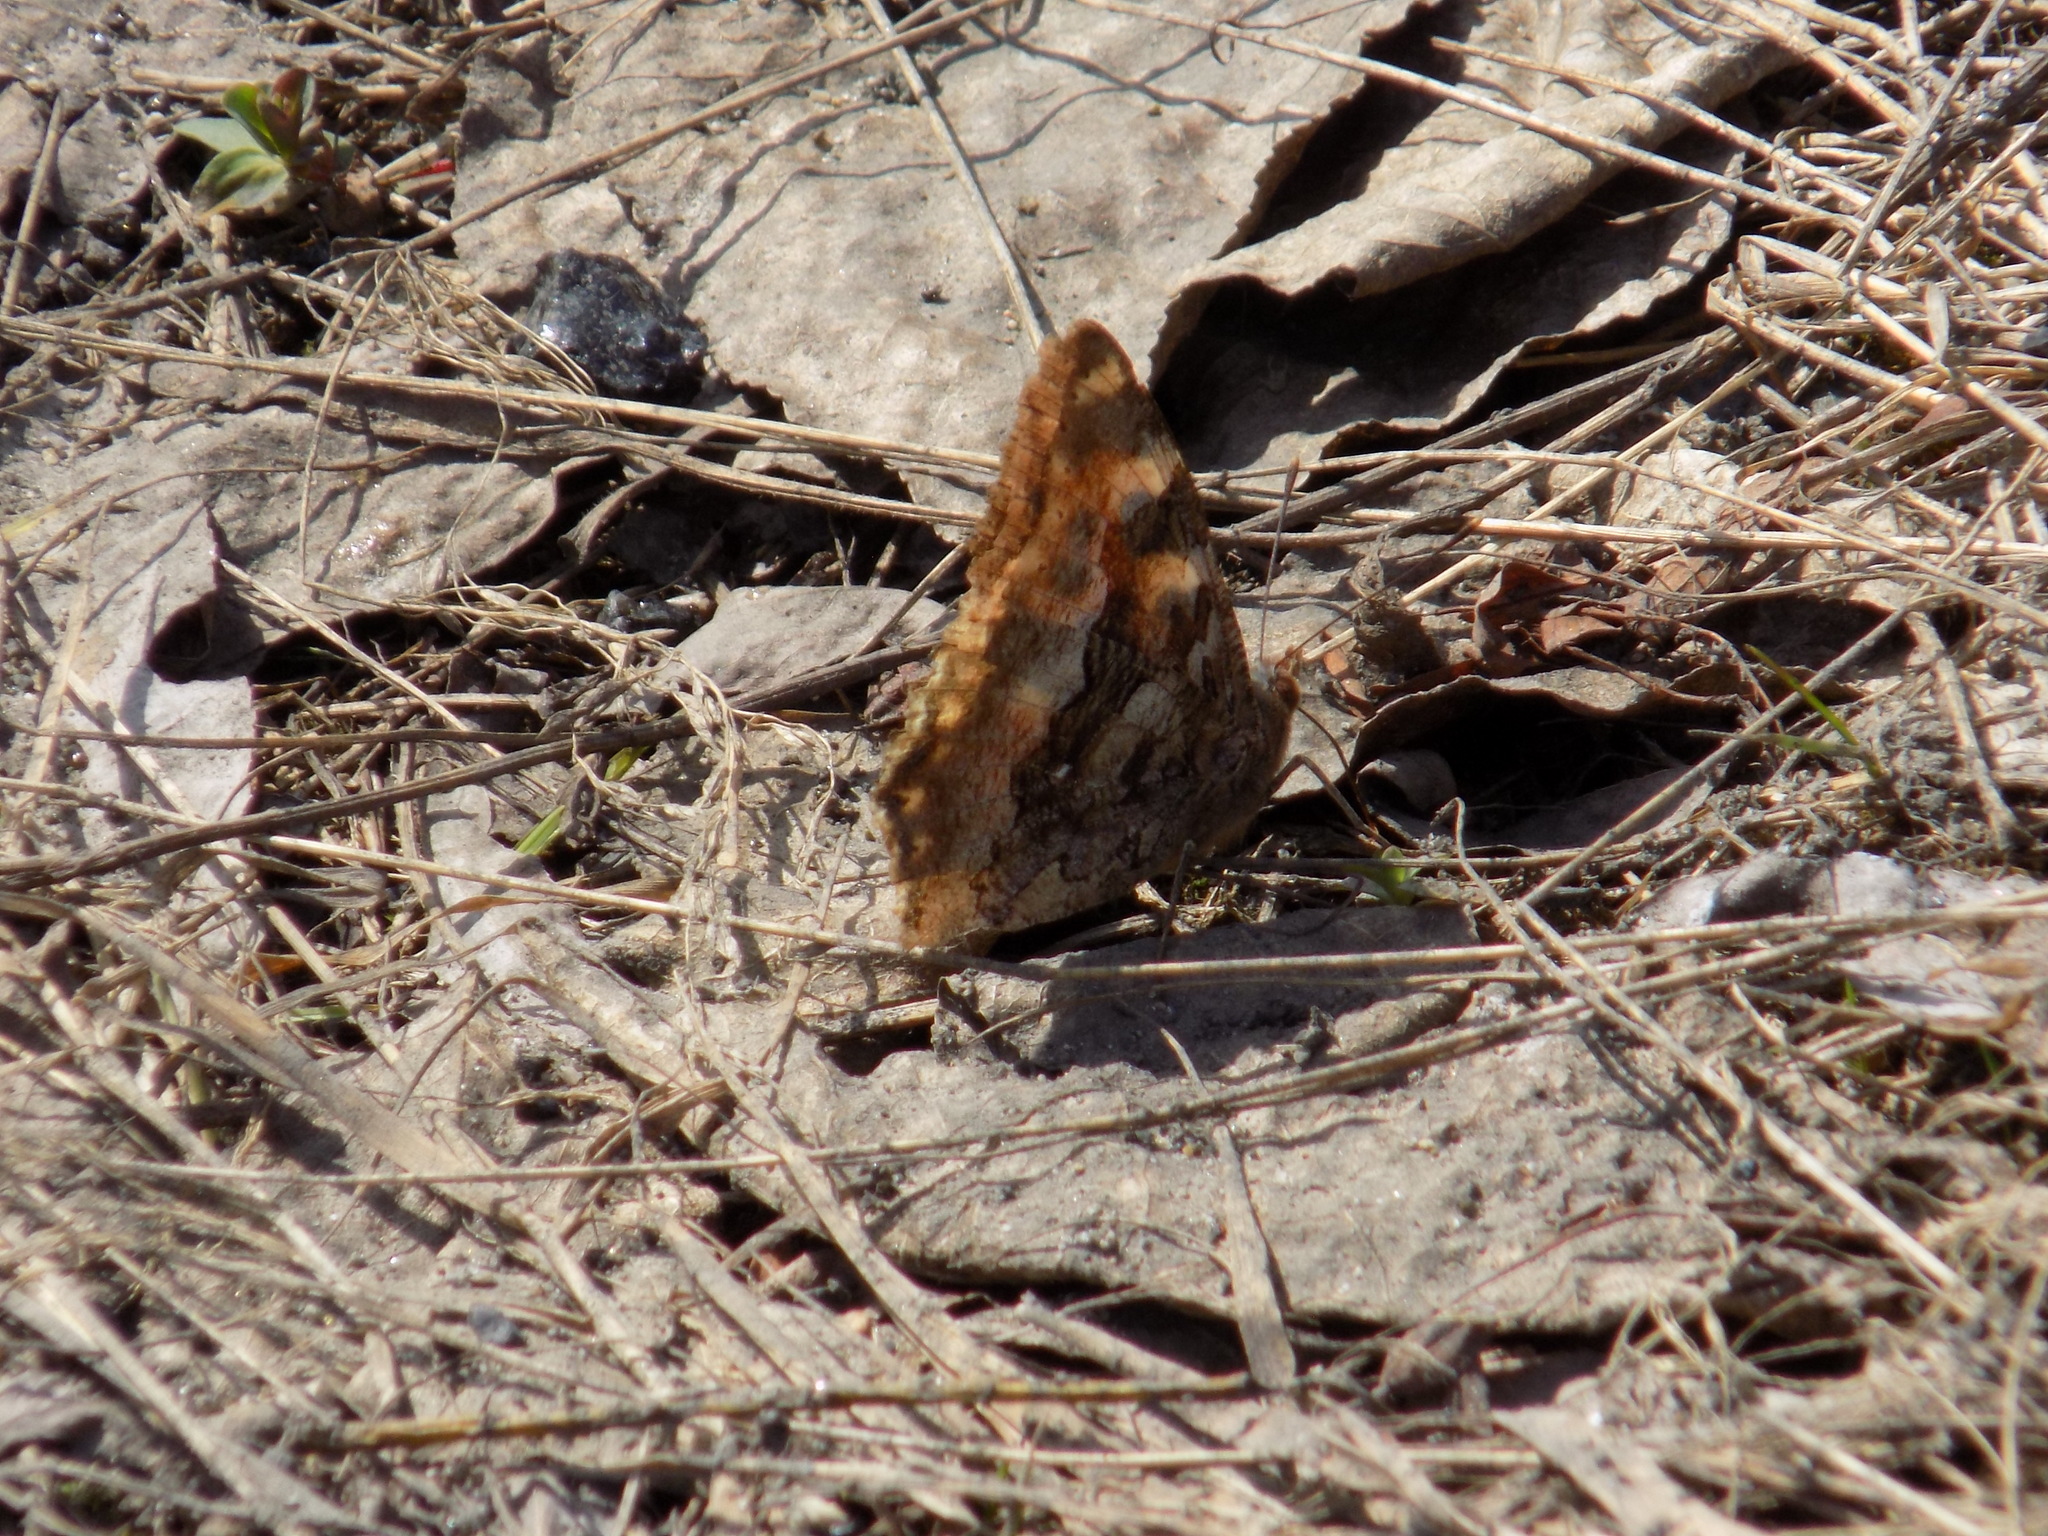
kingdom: Animalia
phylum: Arthropoda
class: Insecta
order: Lepidoptera
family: Nymphalidae
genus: Polygonia
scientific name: Polygonia vaualbum
